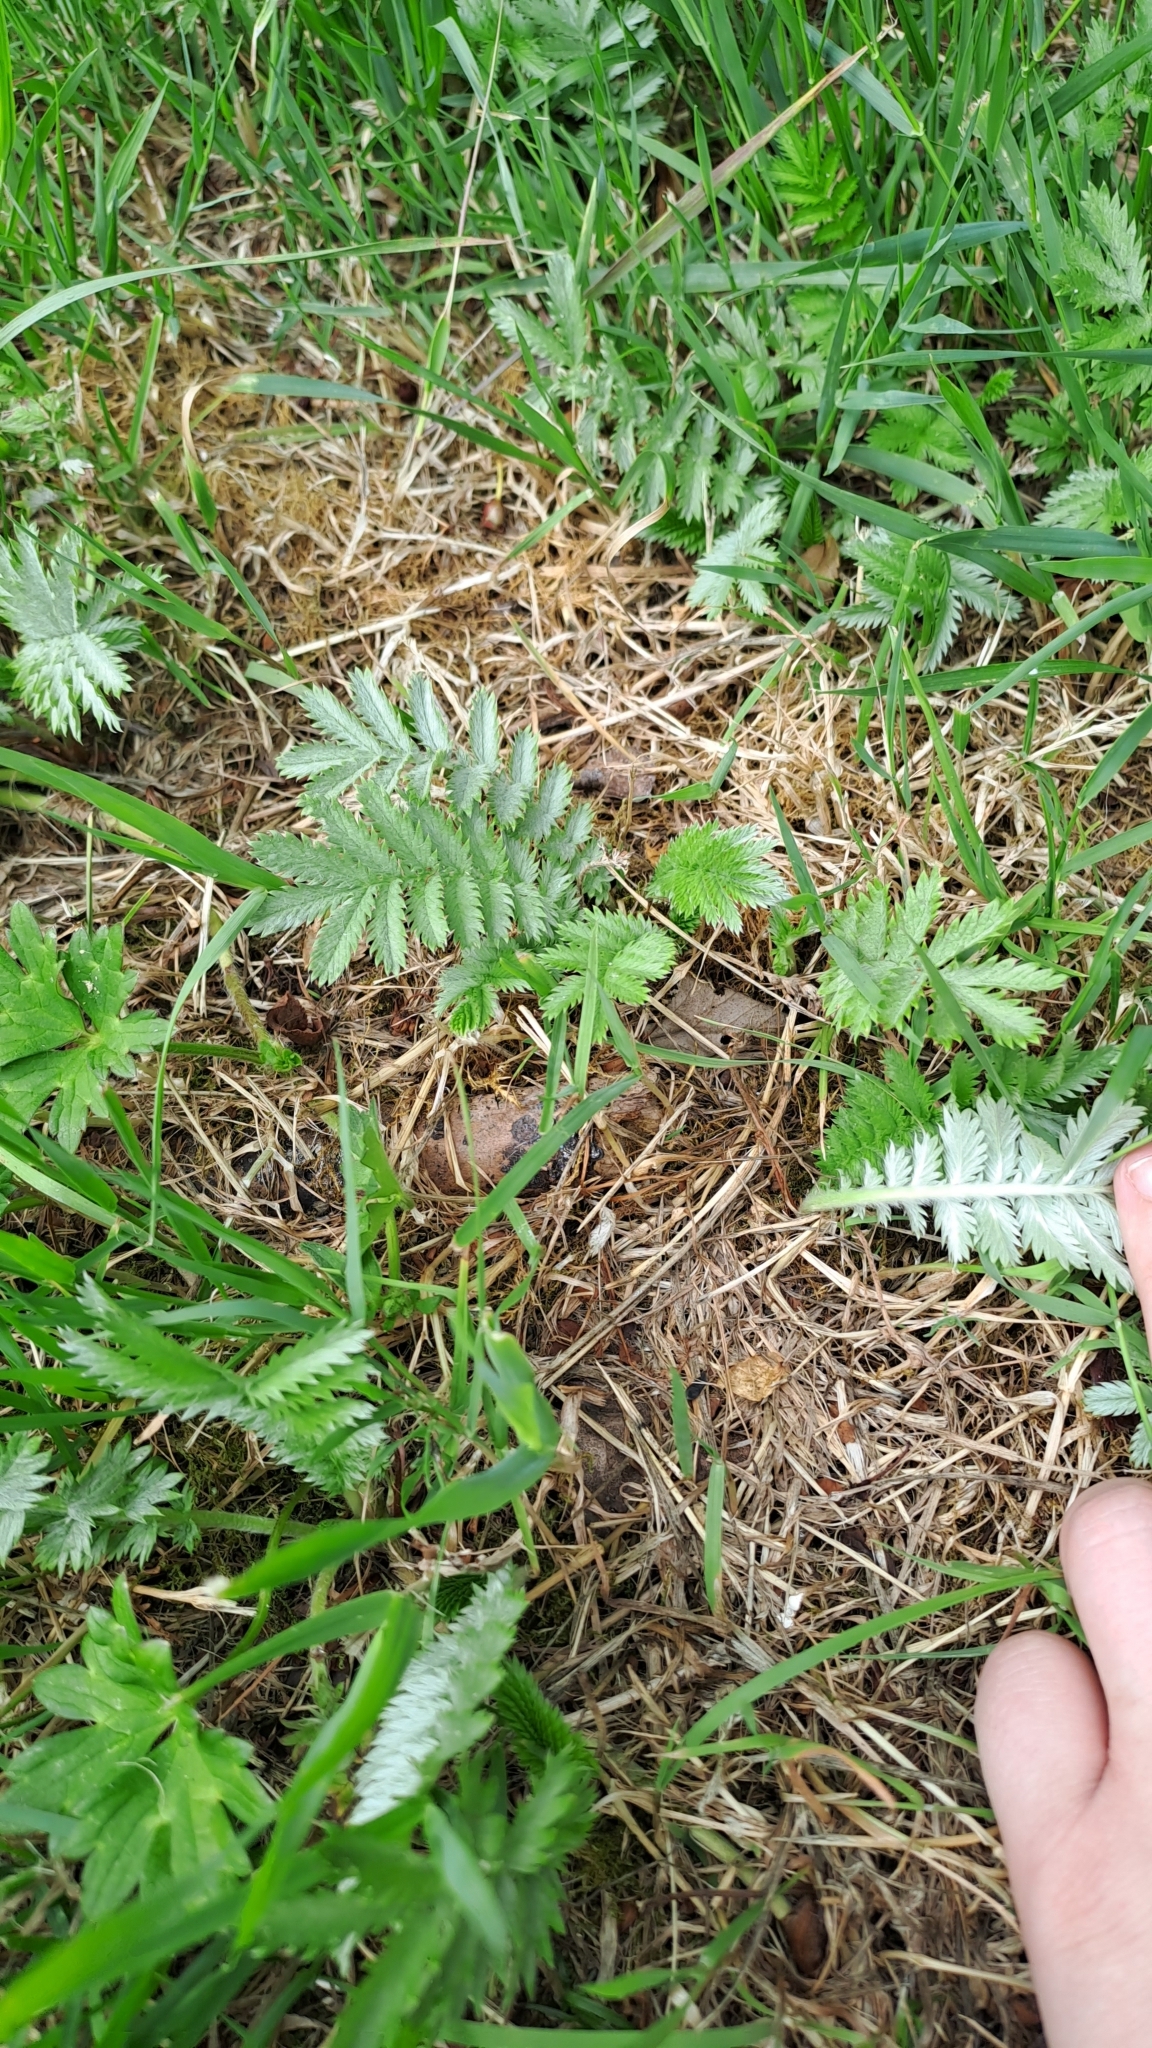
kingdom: Plantae
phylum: Tracheophyta
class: Magnoliopsida
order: Rosales
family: Rosaceae
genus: Argentina
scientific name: Argentina anserina
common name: Common silverweed
